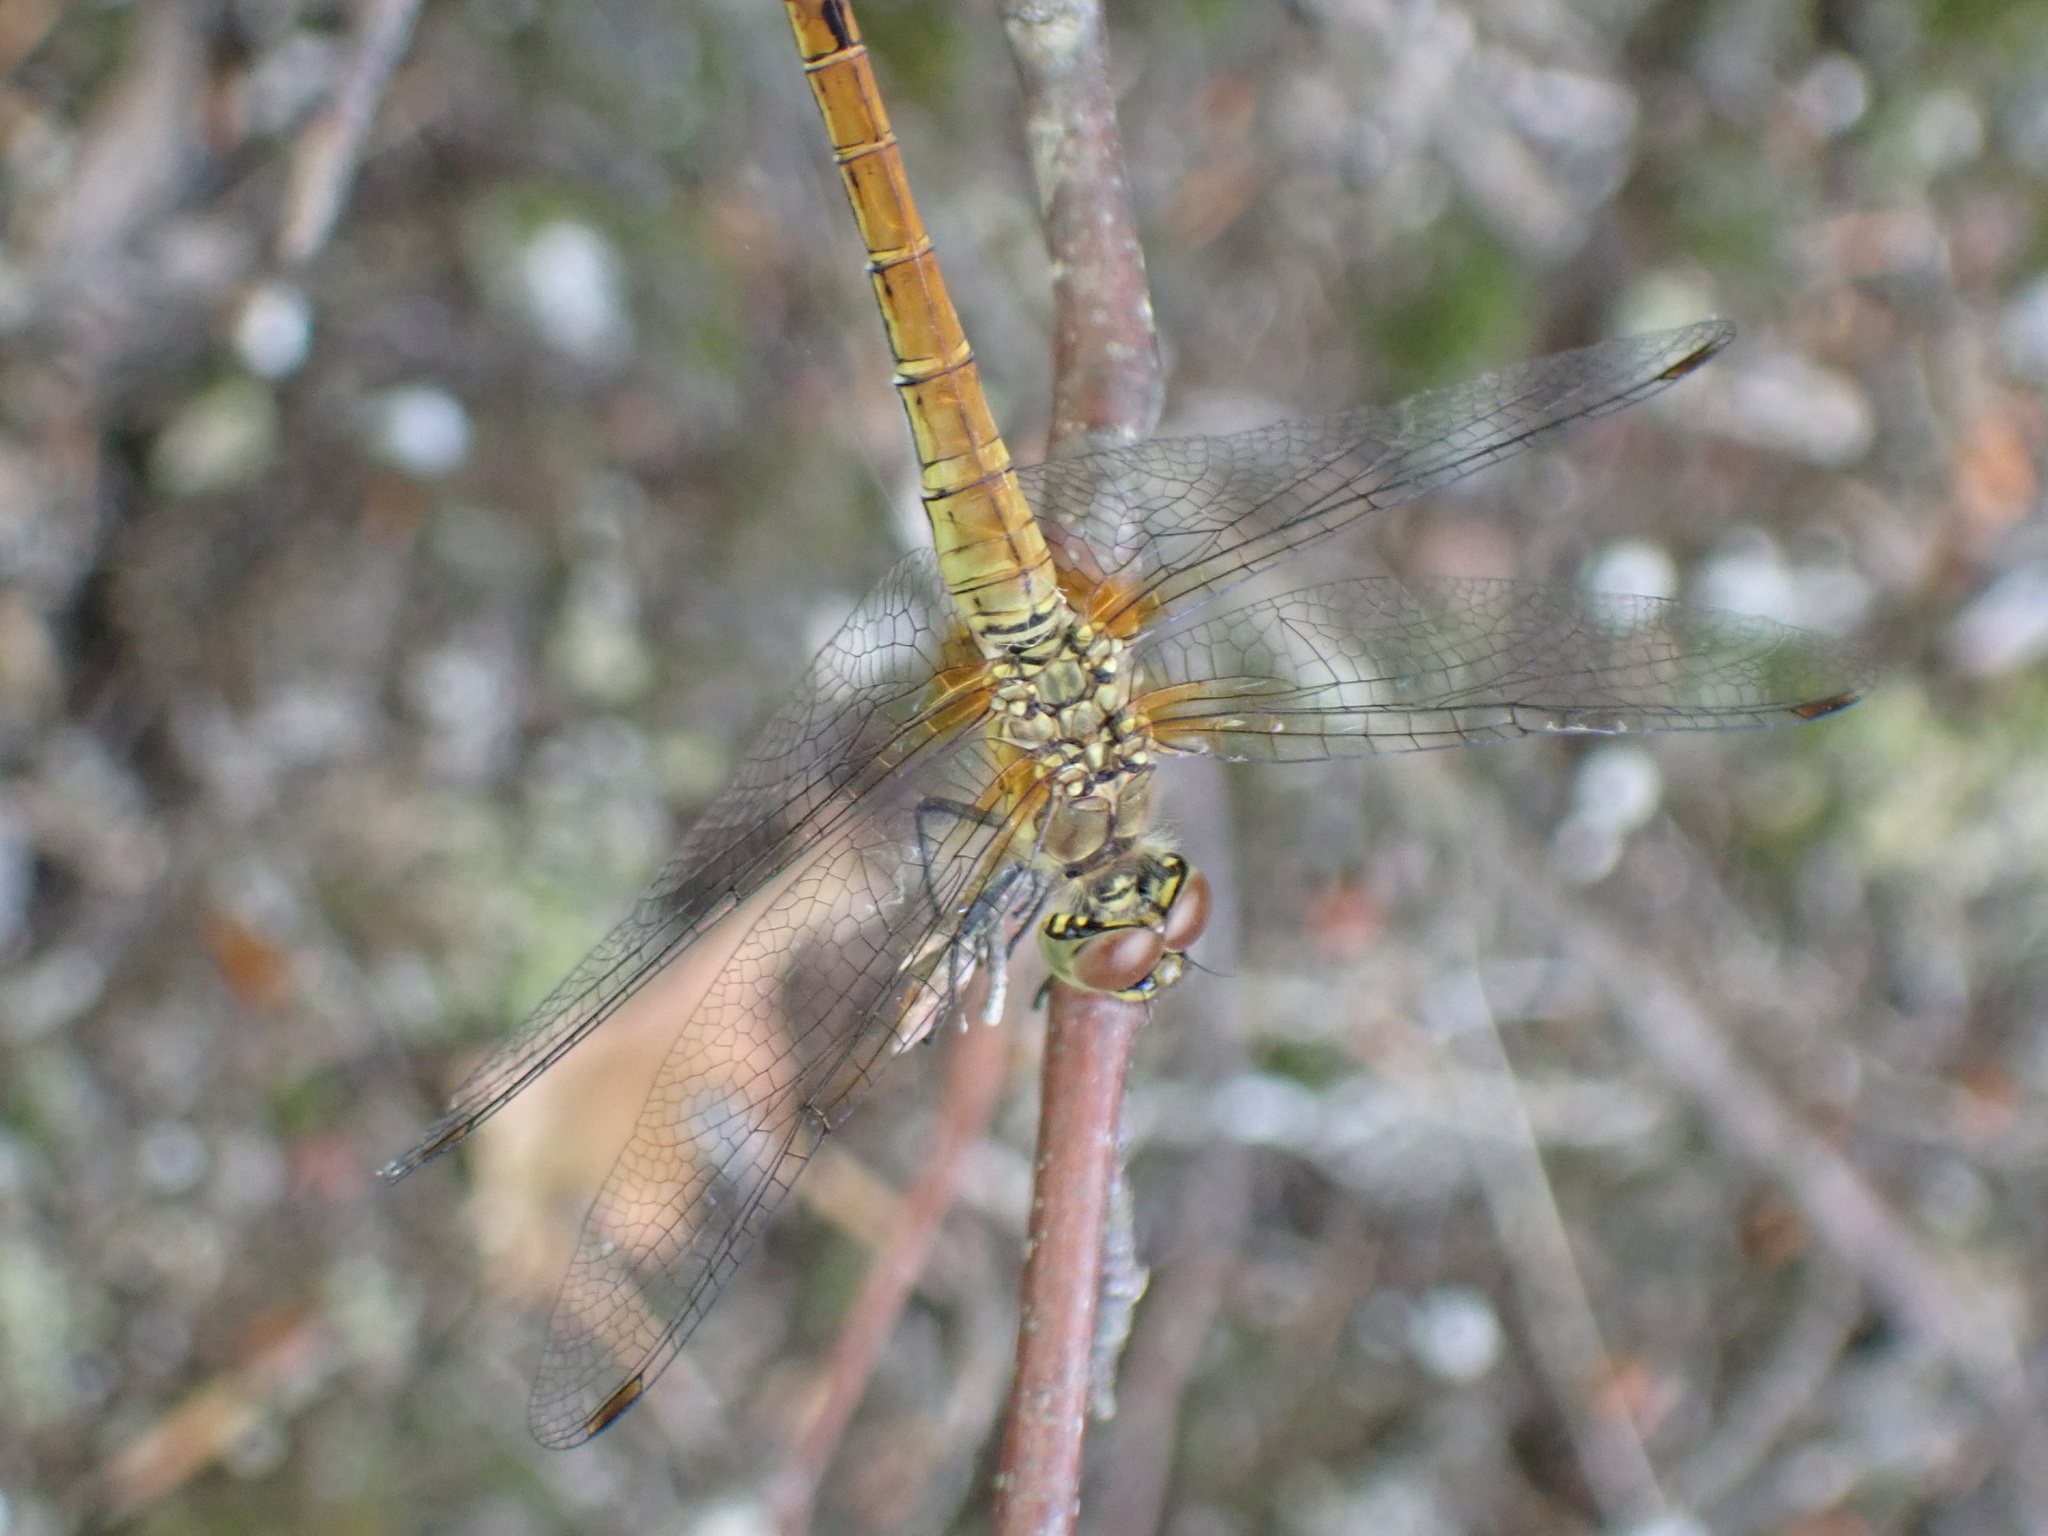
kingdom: Animalia
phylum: Arthropoda
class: Insecta
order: Odonata
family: Libellulidae
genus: Sympetrum
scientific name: Sympetrum sanguineum
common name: Ruddy darter
